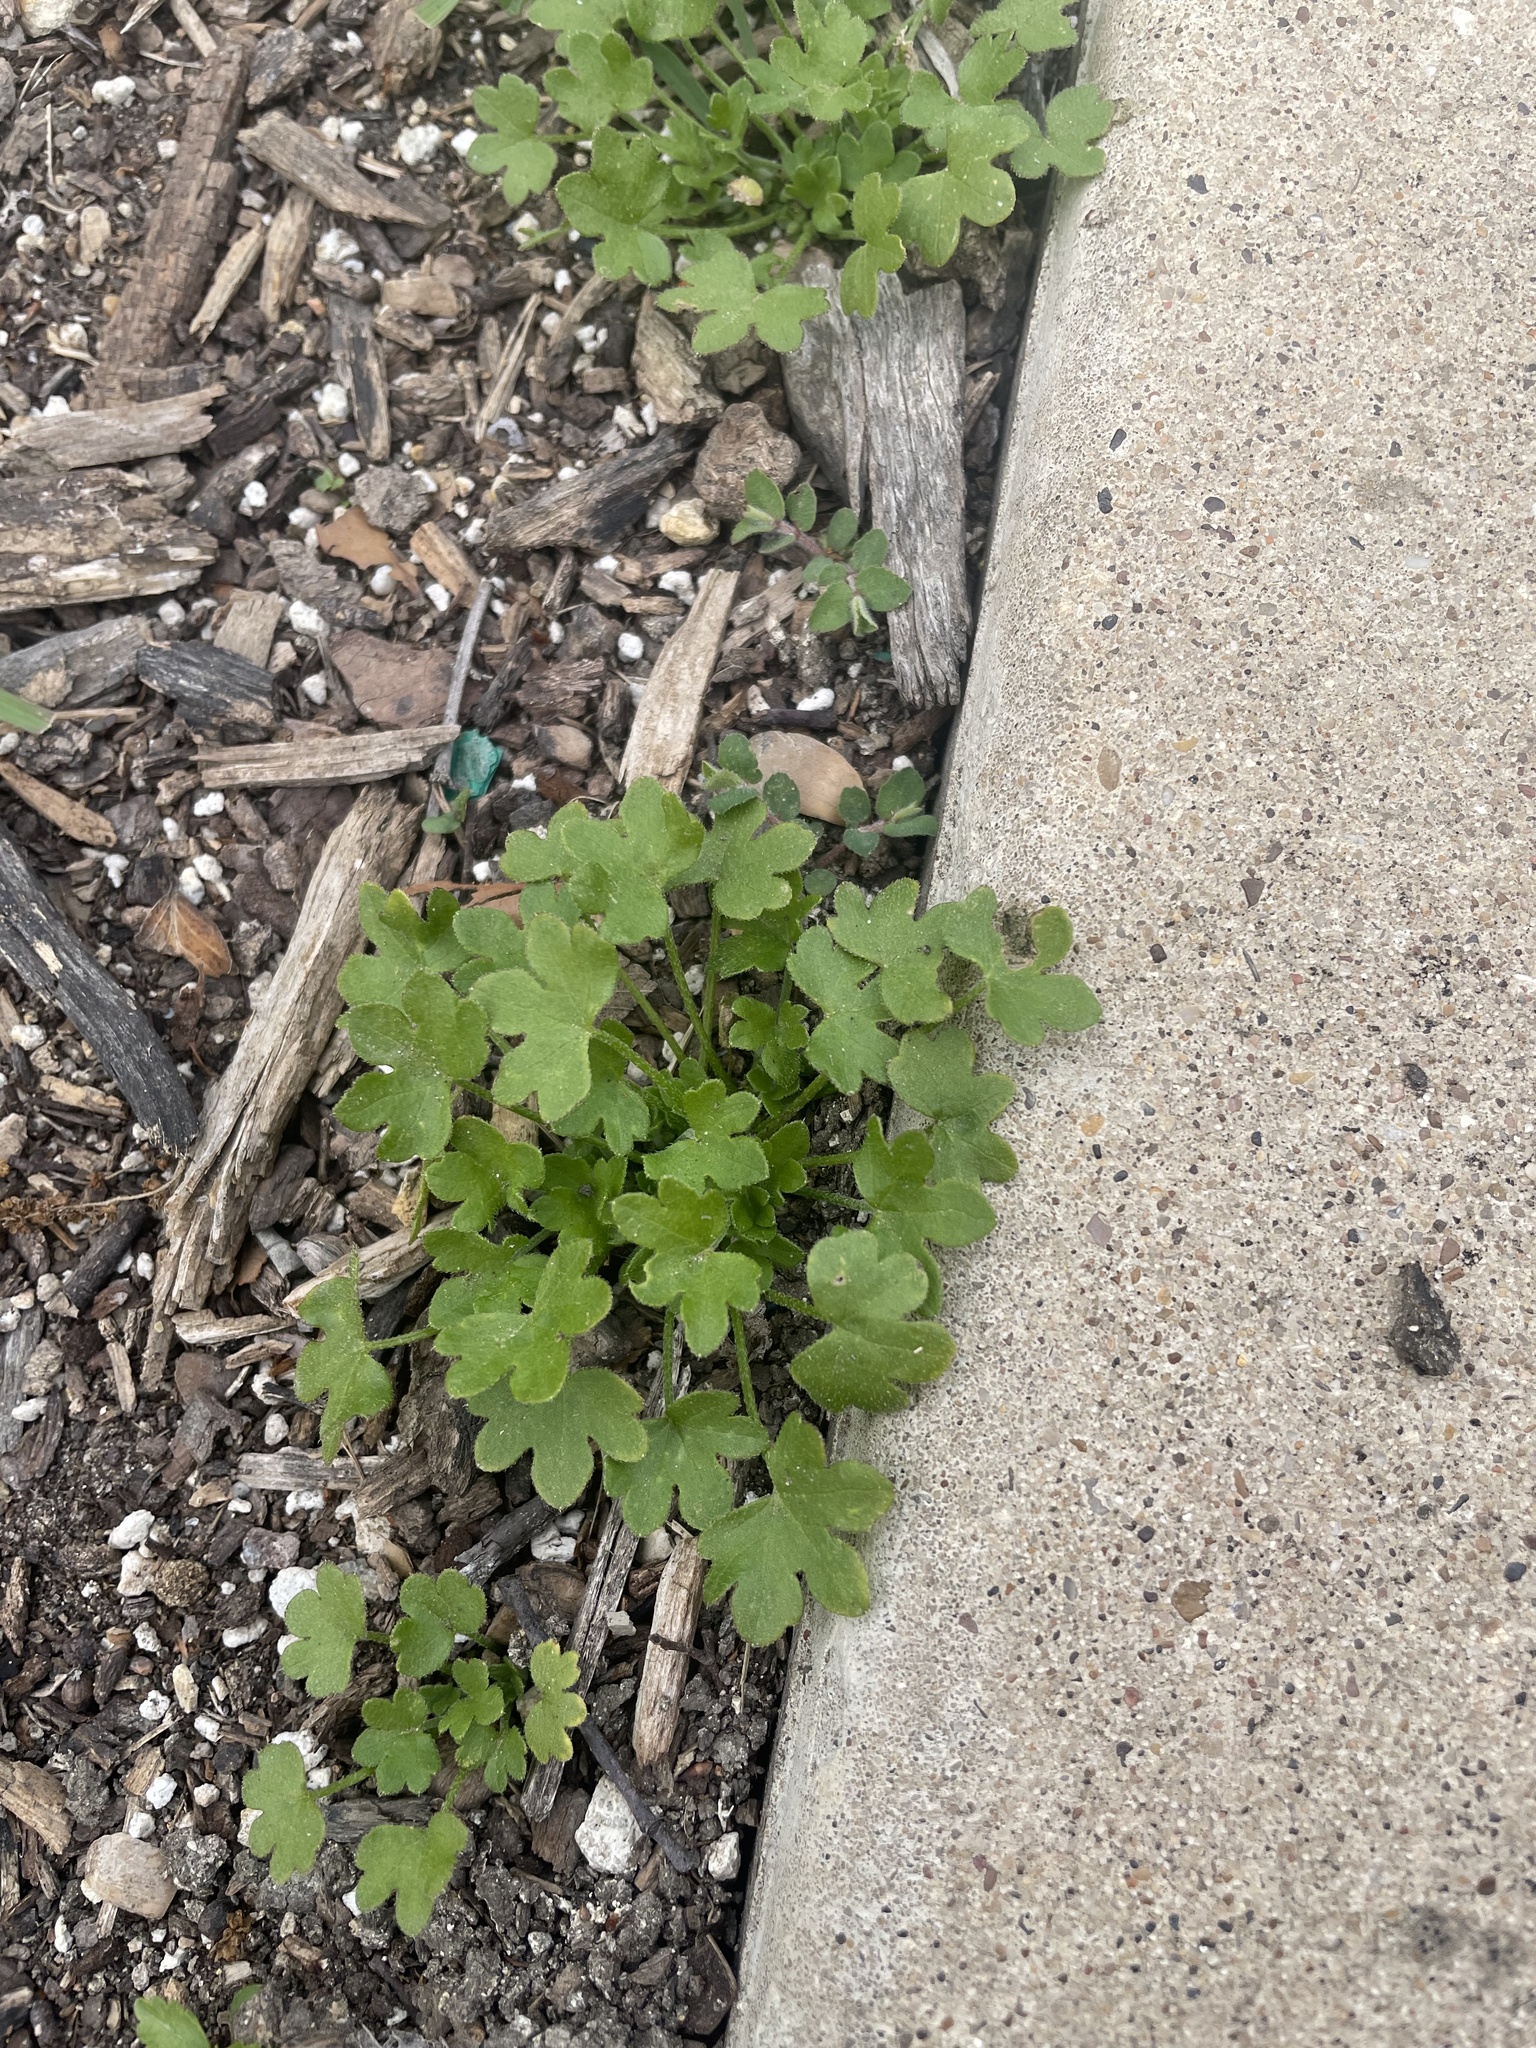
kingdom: Plantae
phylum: Tracheophyta
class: Magnoliopsida
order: Apiales
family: Apiaceae
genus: Bowlesia
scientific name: Bowlesia incana
